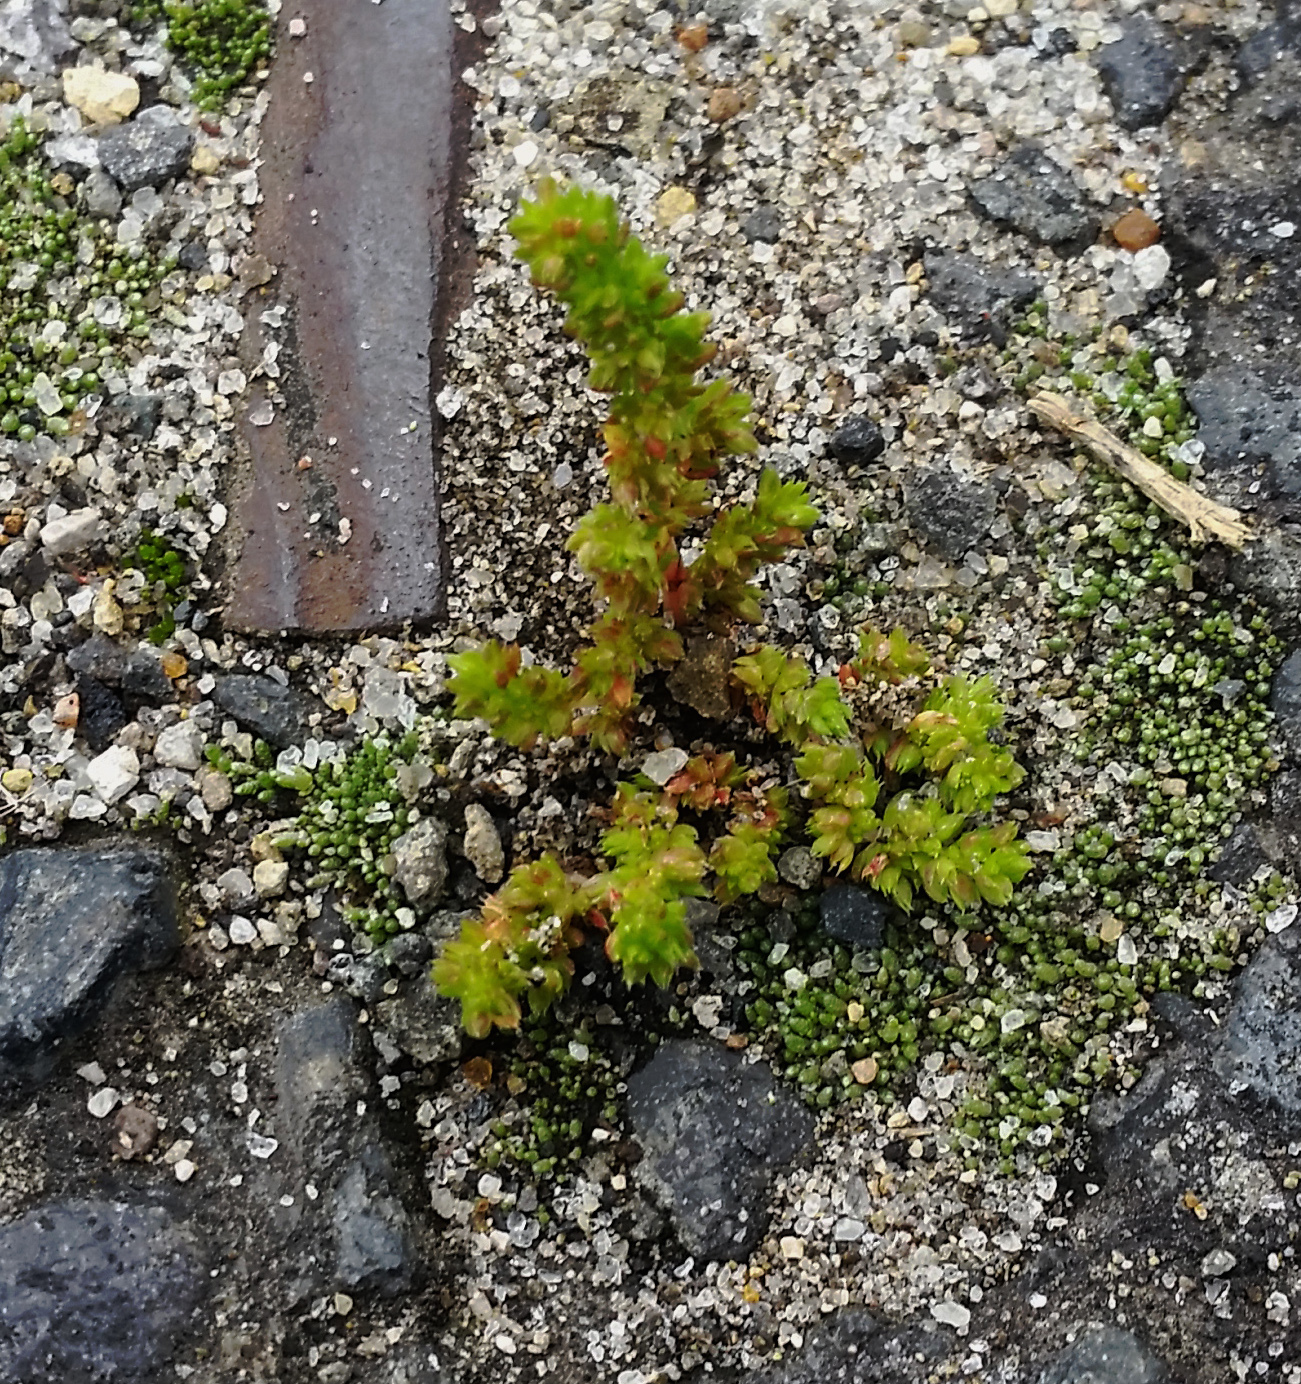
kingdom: Plantae
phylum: Tracheophyta
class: Magnoliopsida
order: Saxifragales
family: Crassulaceae
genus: Crassula
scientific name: Crassula alata
